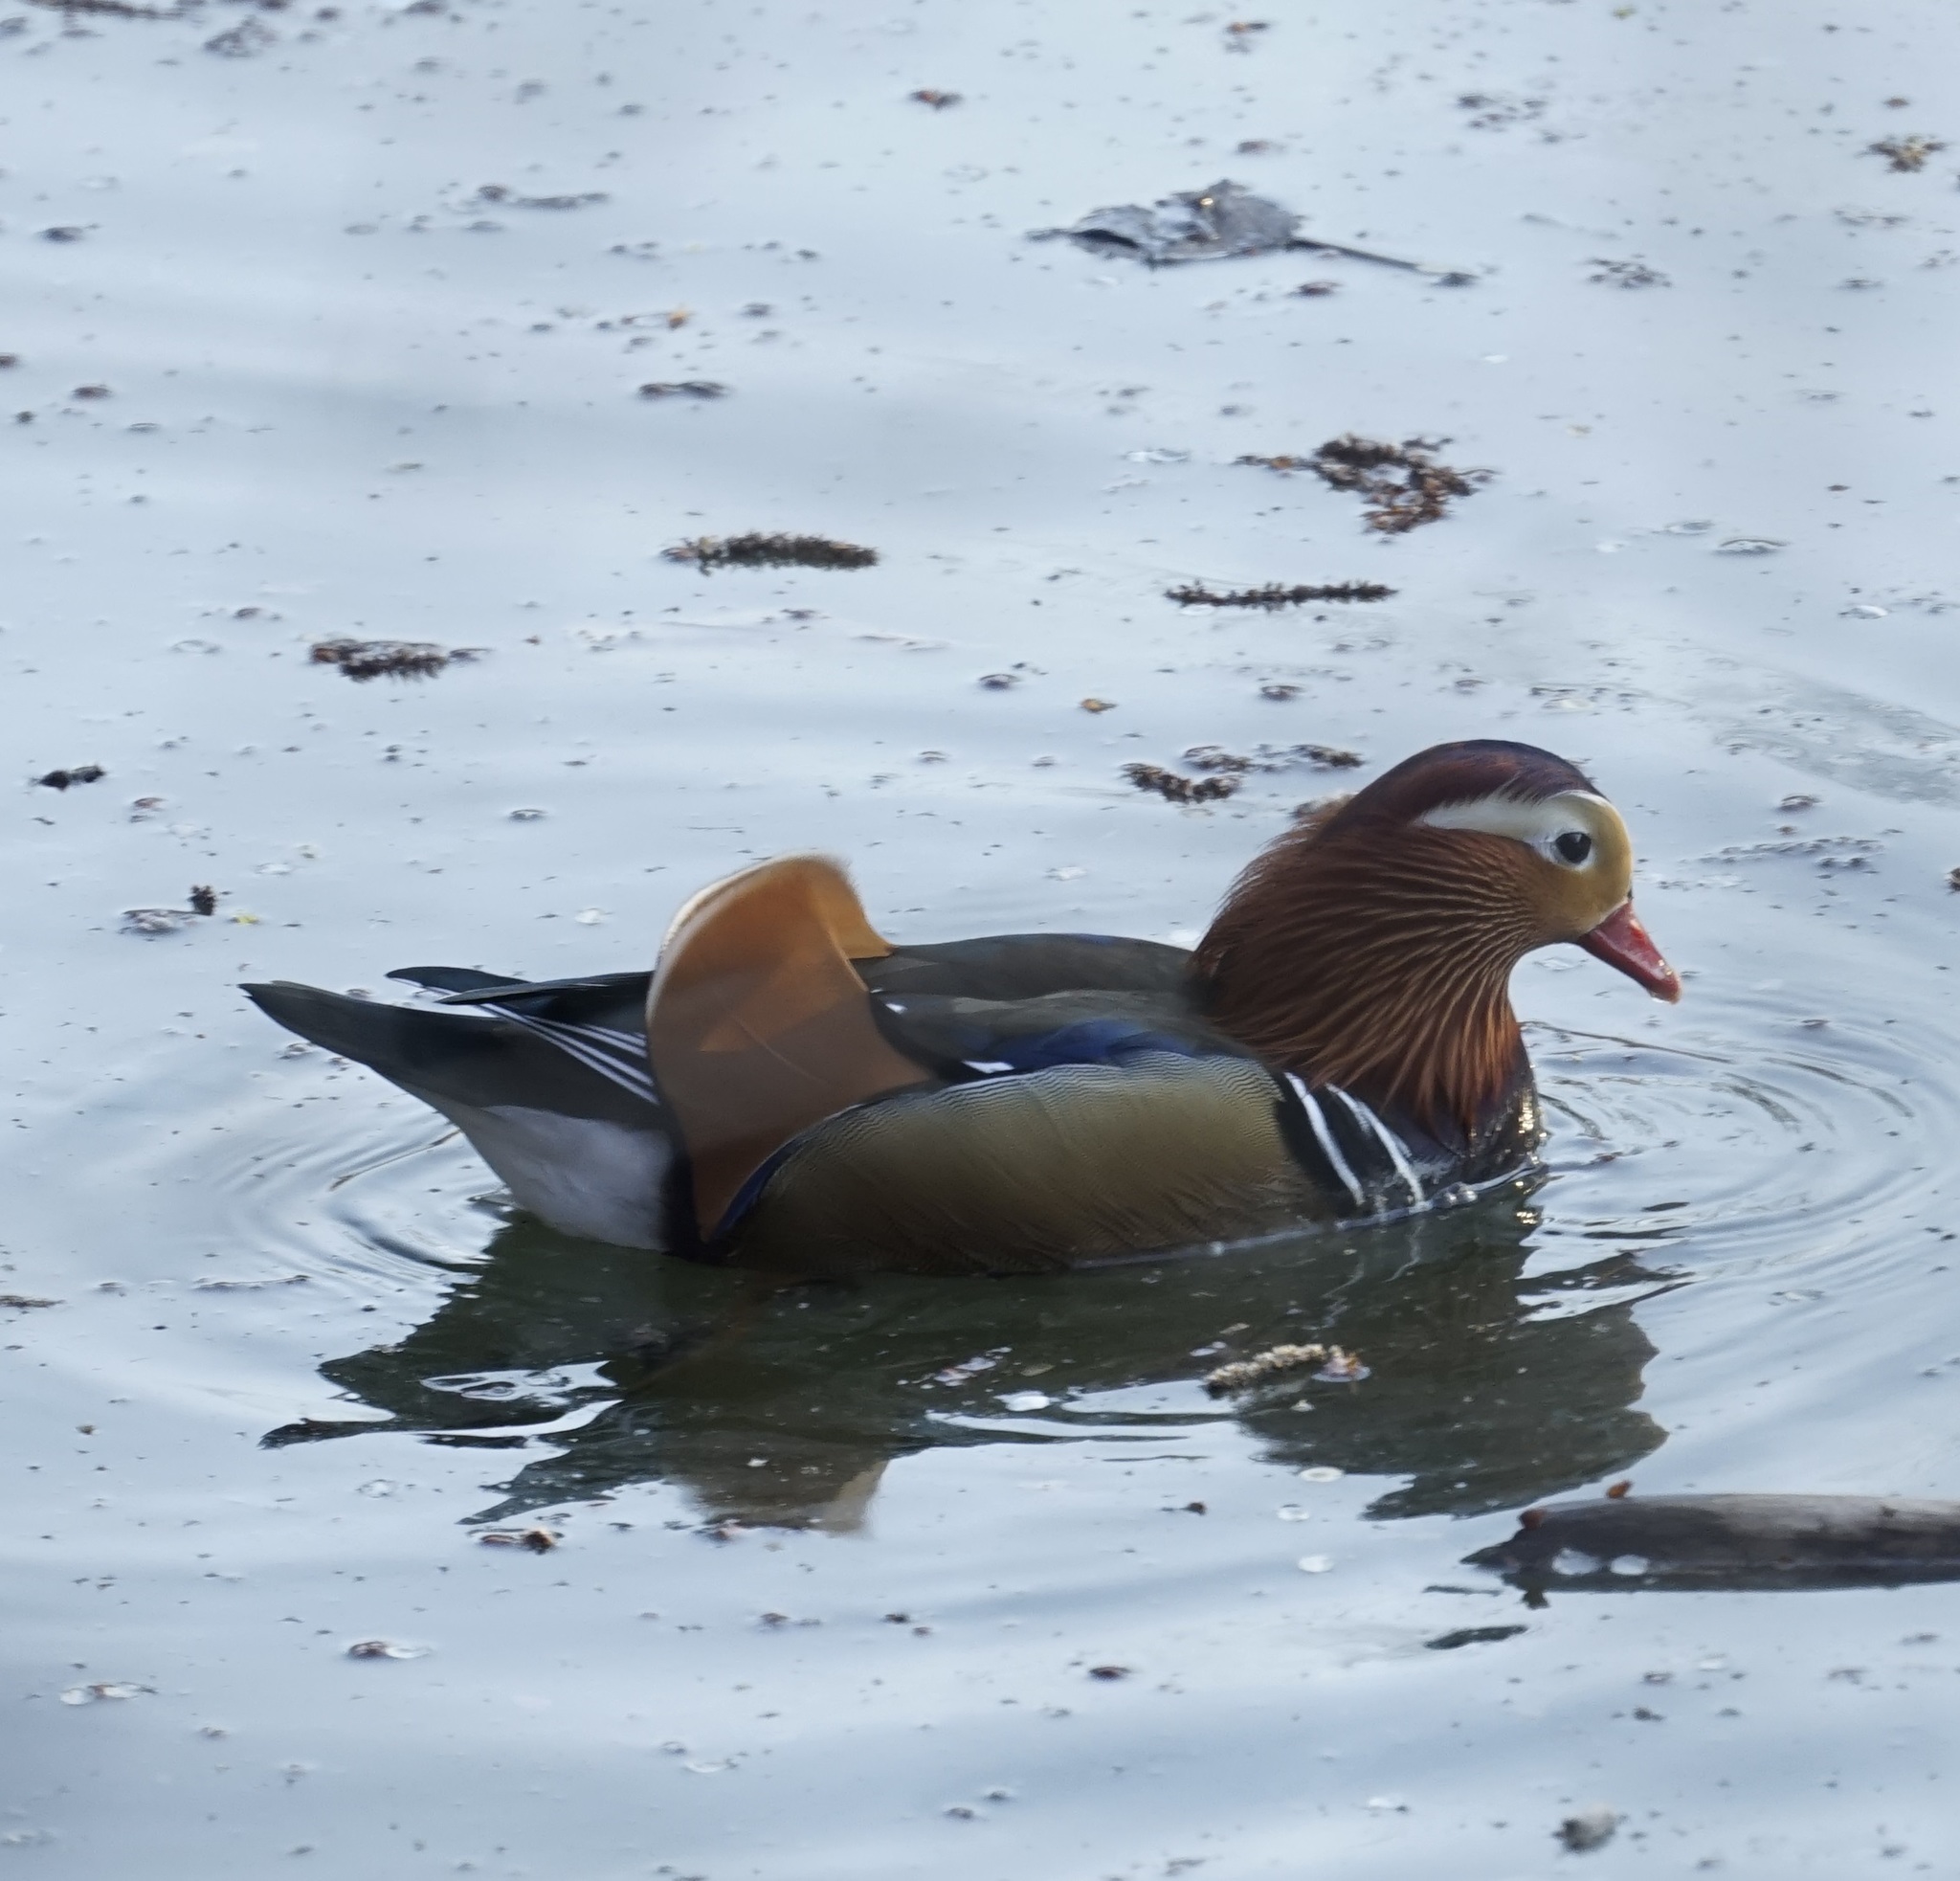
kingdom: Animalia
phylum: Chordata
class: Aves
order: Anseriformes
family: Anatidae
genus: Aix
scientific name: Aix galericulata
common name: Mandarin duck
